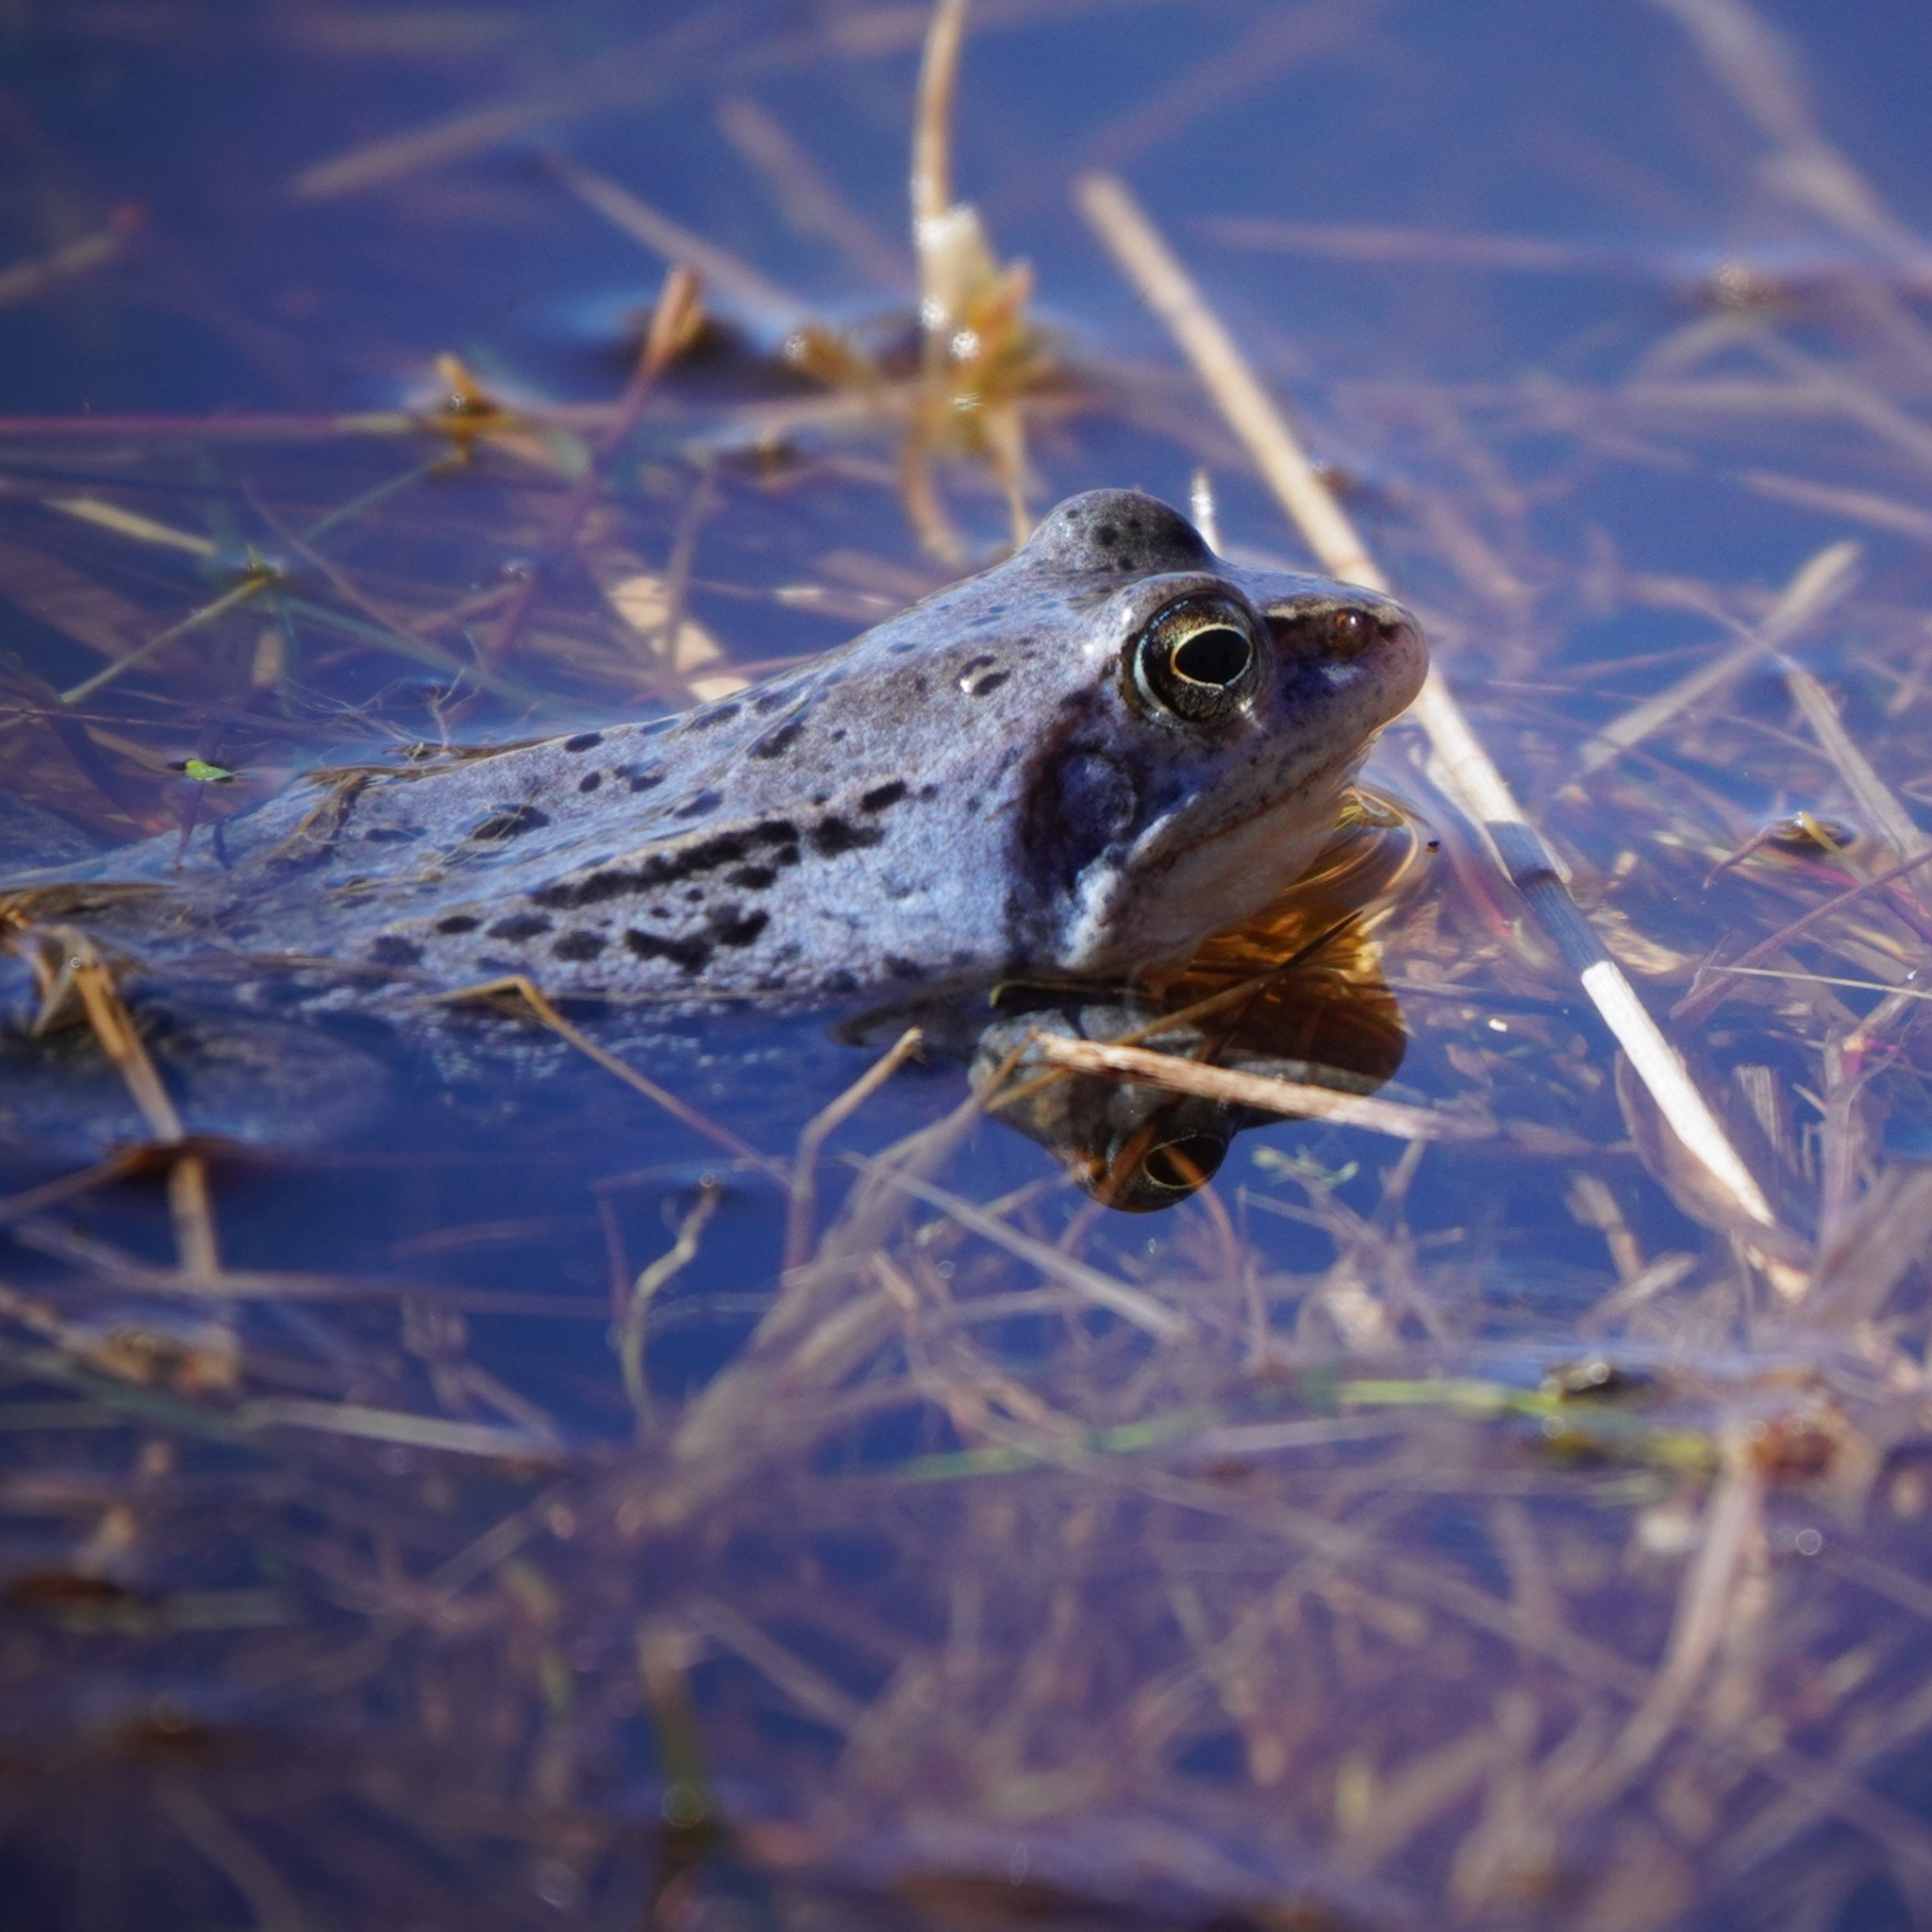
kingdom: Animalia
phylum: Chordata
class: Amphibia
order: Anura
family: Ranidae
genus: Rana
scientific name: Rana arvalis
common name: Moor frog
